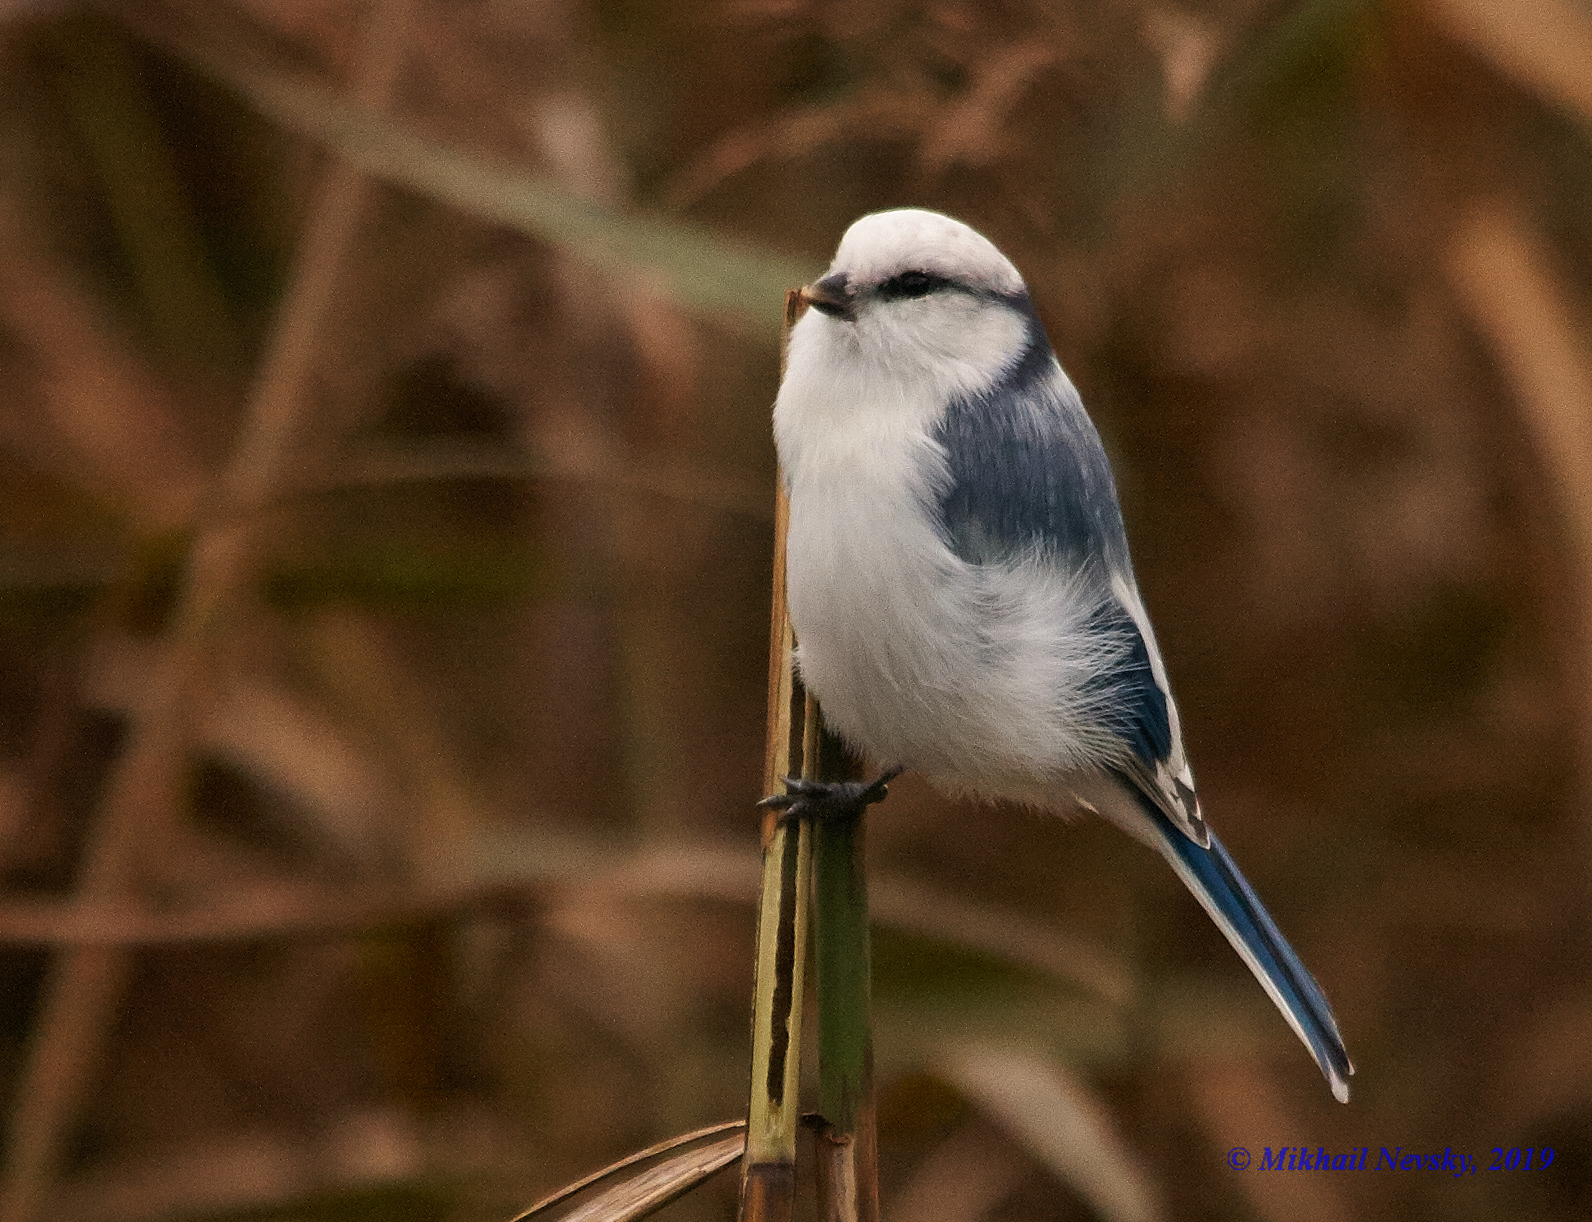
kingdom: Animalia
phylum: Chordata
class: Aves
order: Passeriformes
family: Paridae
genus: Cyanistes
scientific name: Cyanistes cyanus
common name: Azure tit
